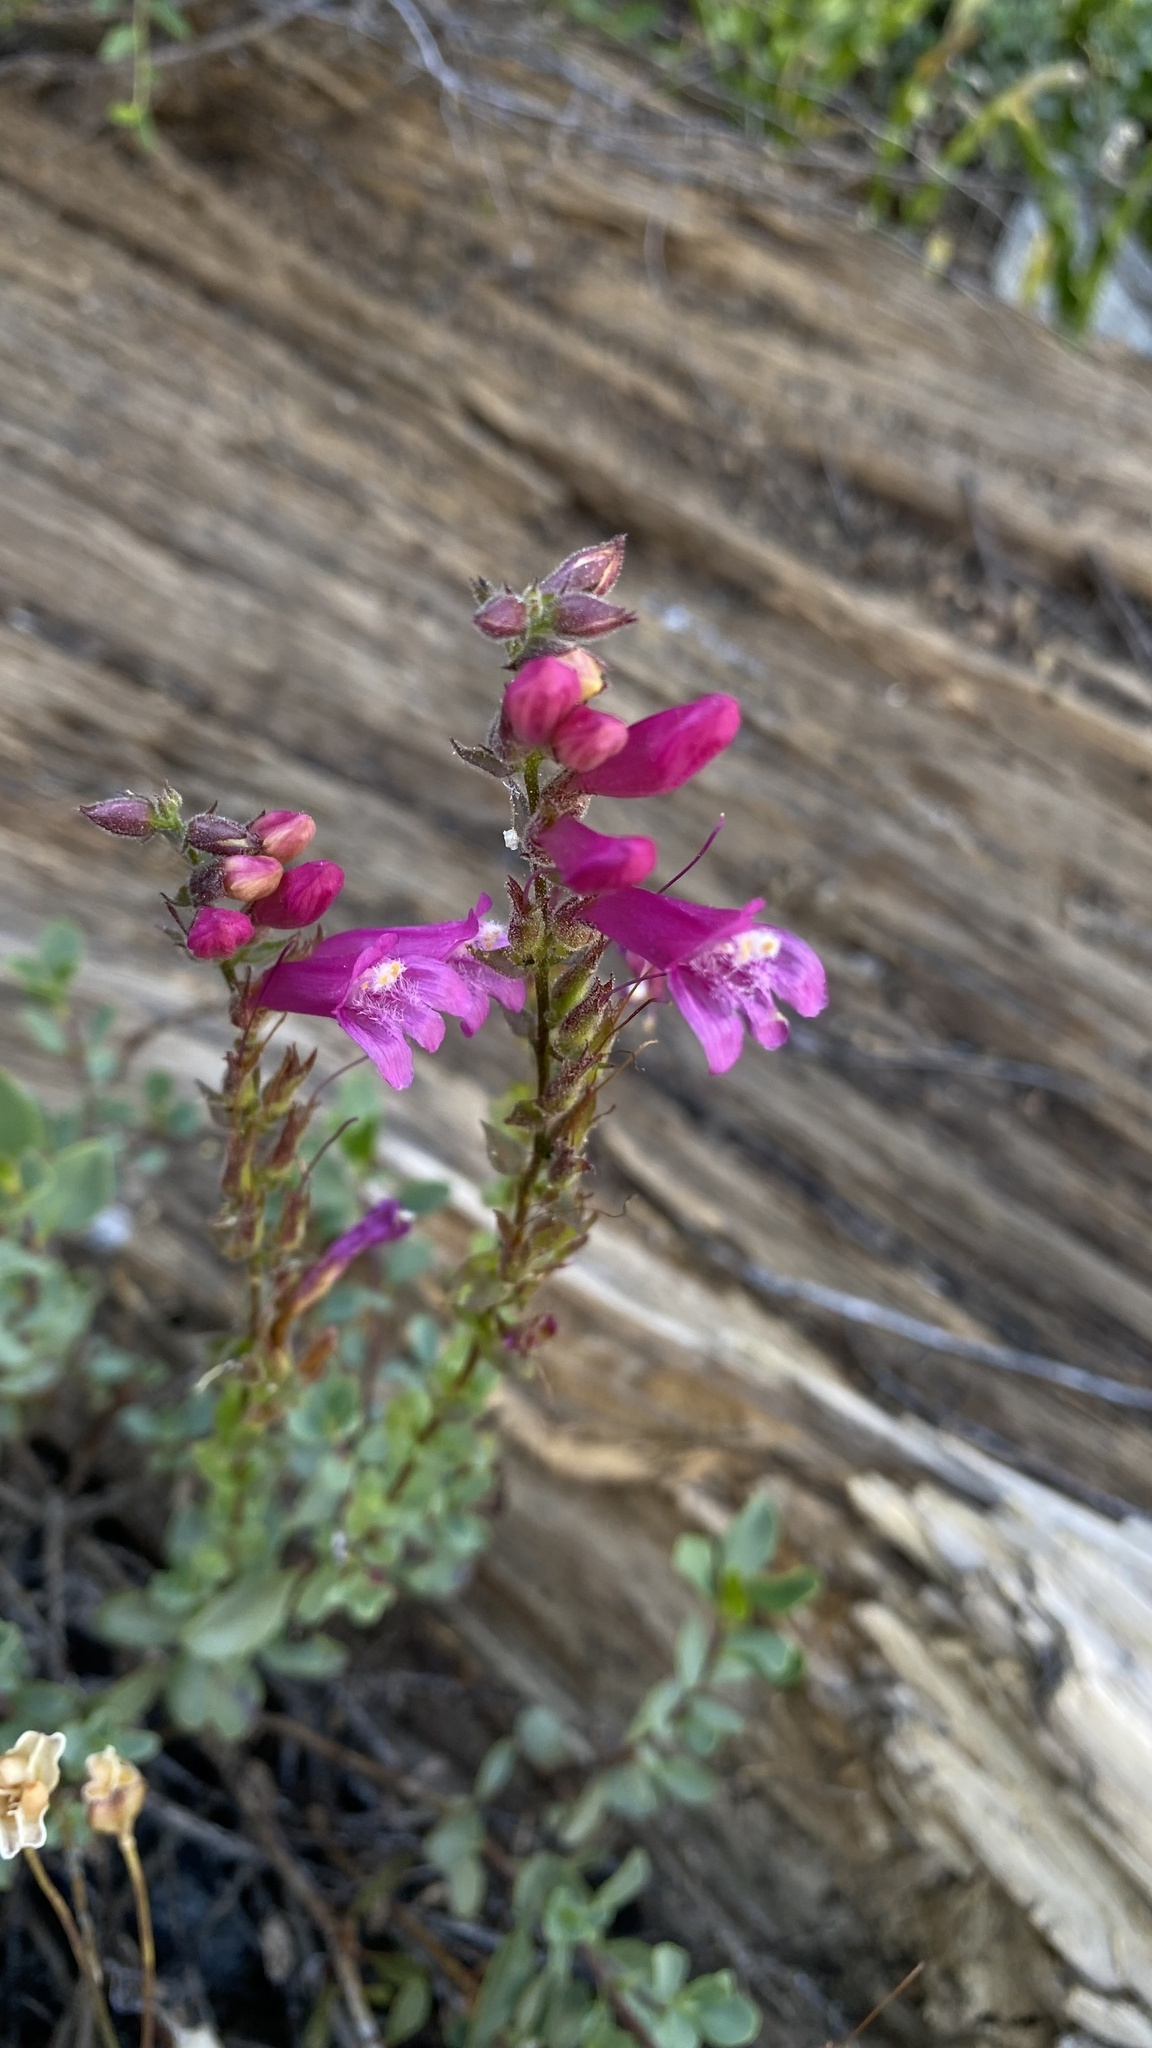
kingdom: Plantae
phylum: Tracheophyta
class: Magnoliopsida
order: Lamiales
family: Plantaginaceae
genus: Penstemon
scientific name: Penstemon newberryi
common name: Mountain-pride
